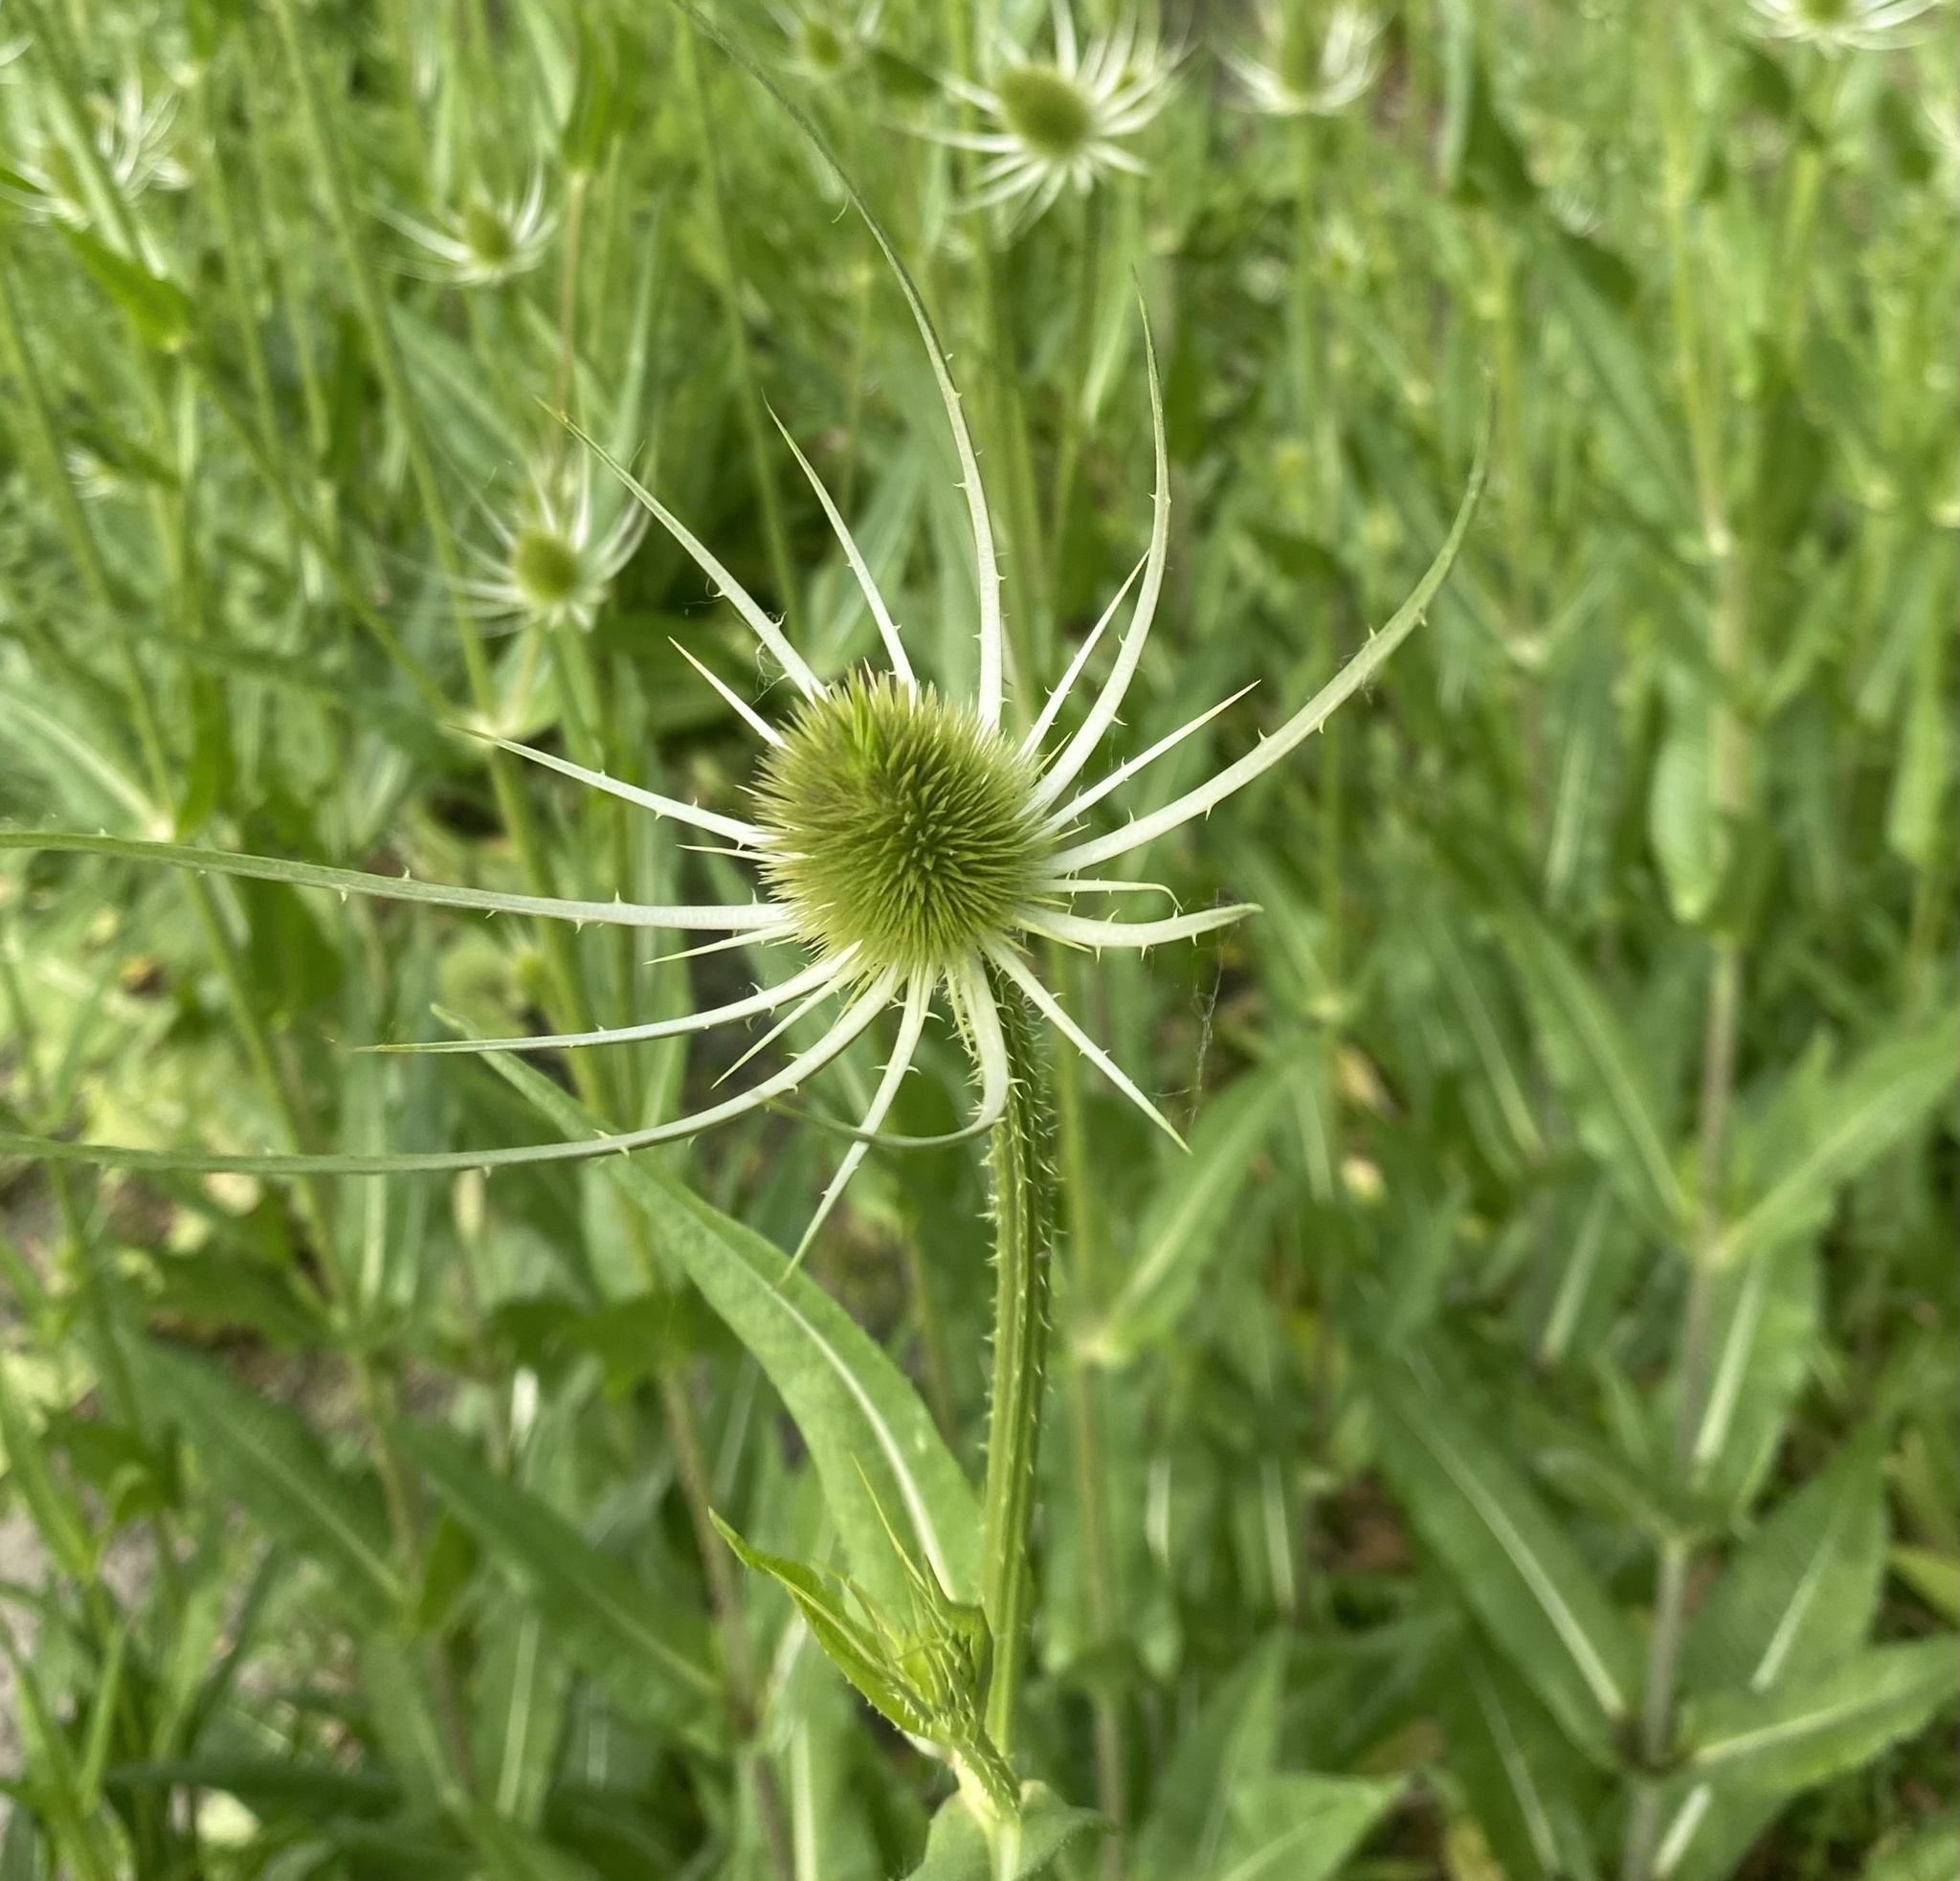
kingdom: Plantae
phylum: Tracheophyta
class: Magnoliopsida
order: Dipsacales
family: Caprifoliaceae
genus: Dipsacus
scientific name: Dipsacus fullonum
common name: Teasel
